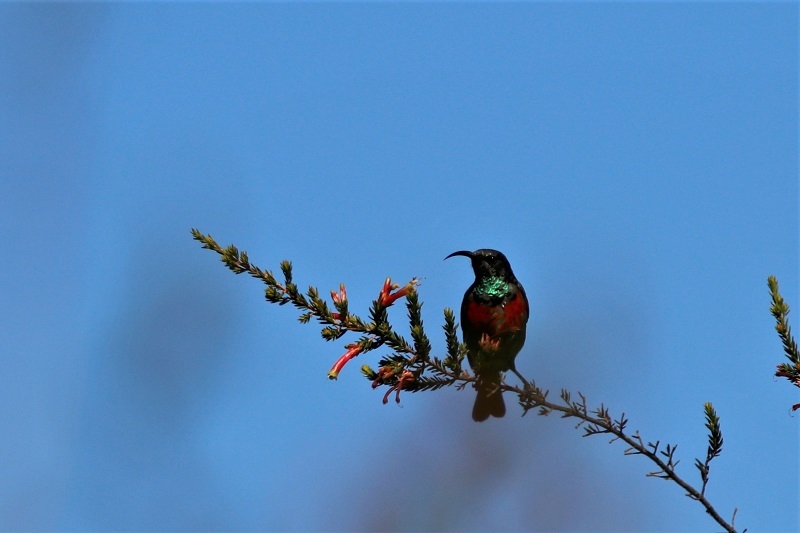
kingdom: Animalia
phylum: Chordata
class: Aves
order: Passeriformes
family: Nectariniidae
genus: Cinnyris
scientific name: Cinnyris afer
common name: Greater double-collared sunbird
